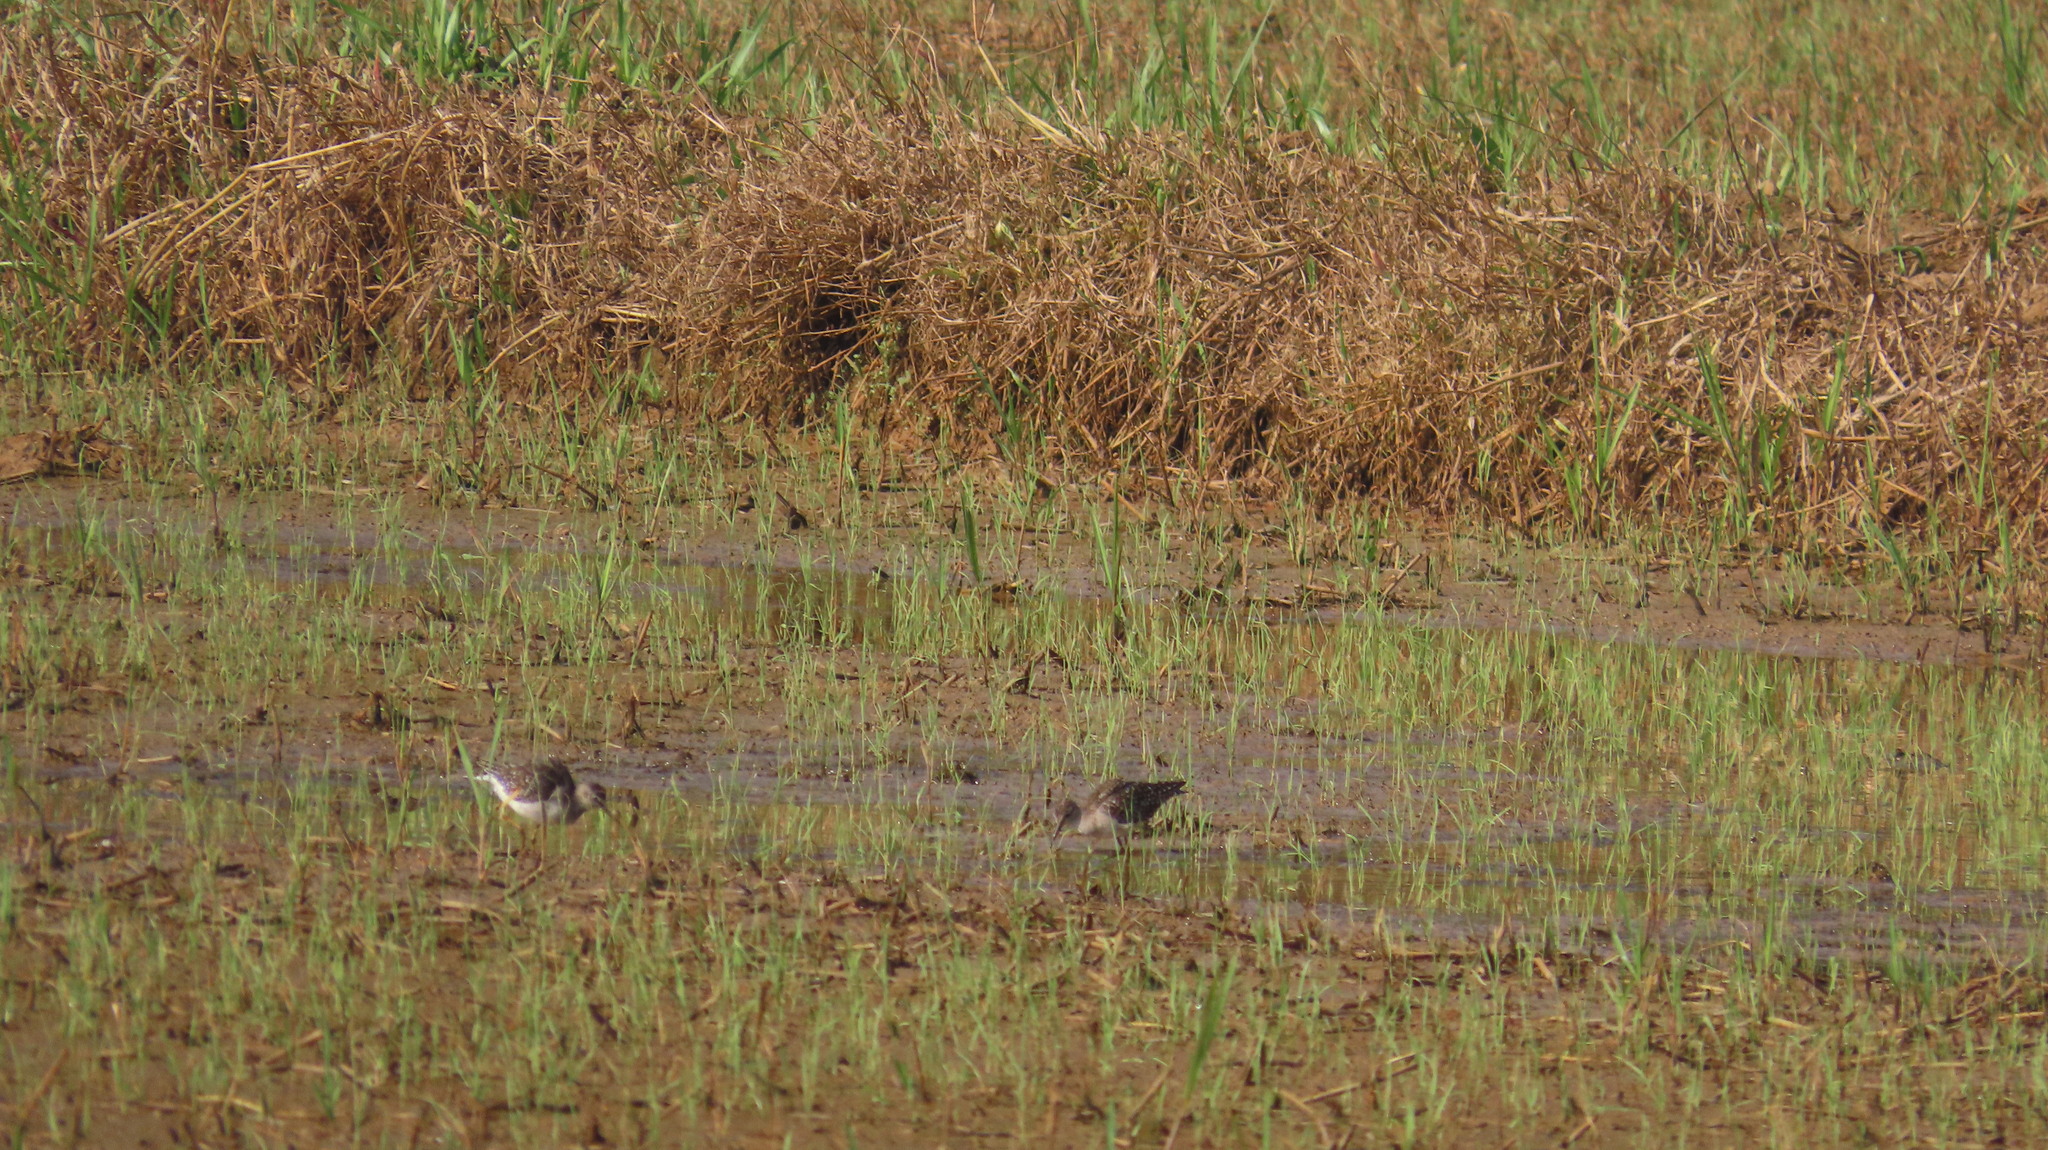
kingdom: Animalia
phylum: Chordata
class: Aves
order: Charadriiformes
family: Scolopacidae
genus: Tringa
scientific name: Tringa glareola
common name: Wood sandpiper
